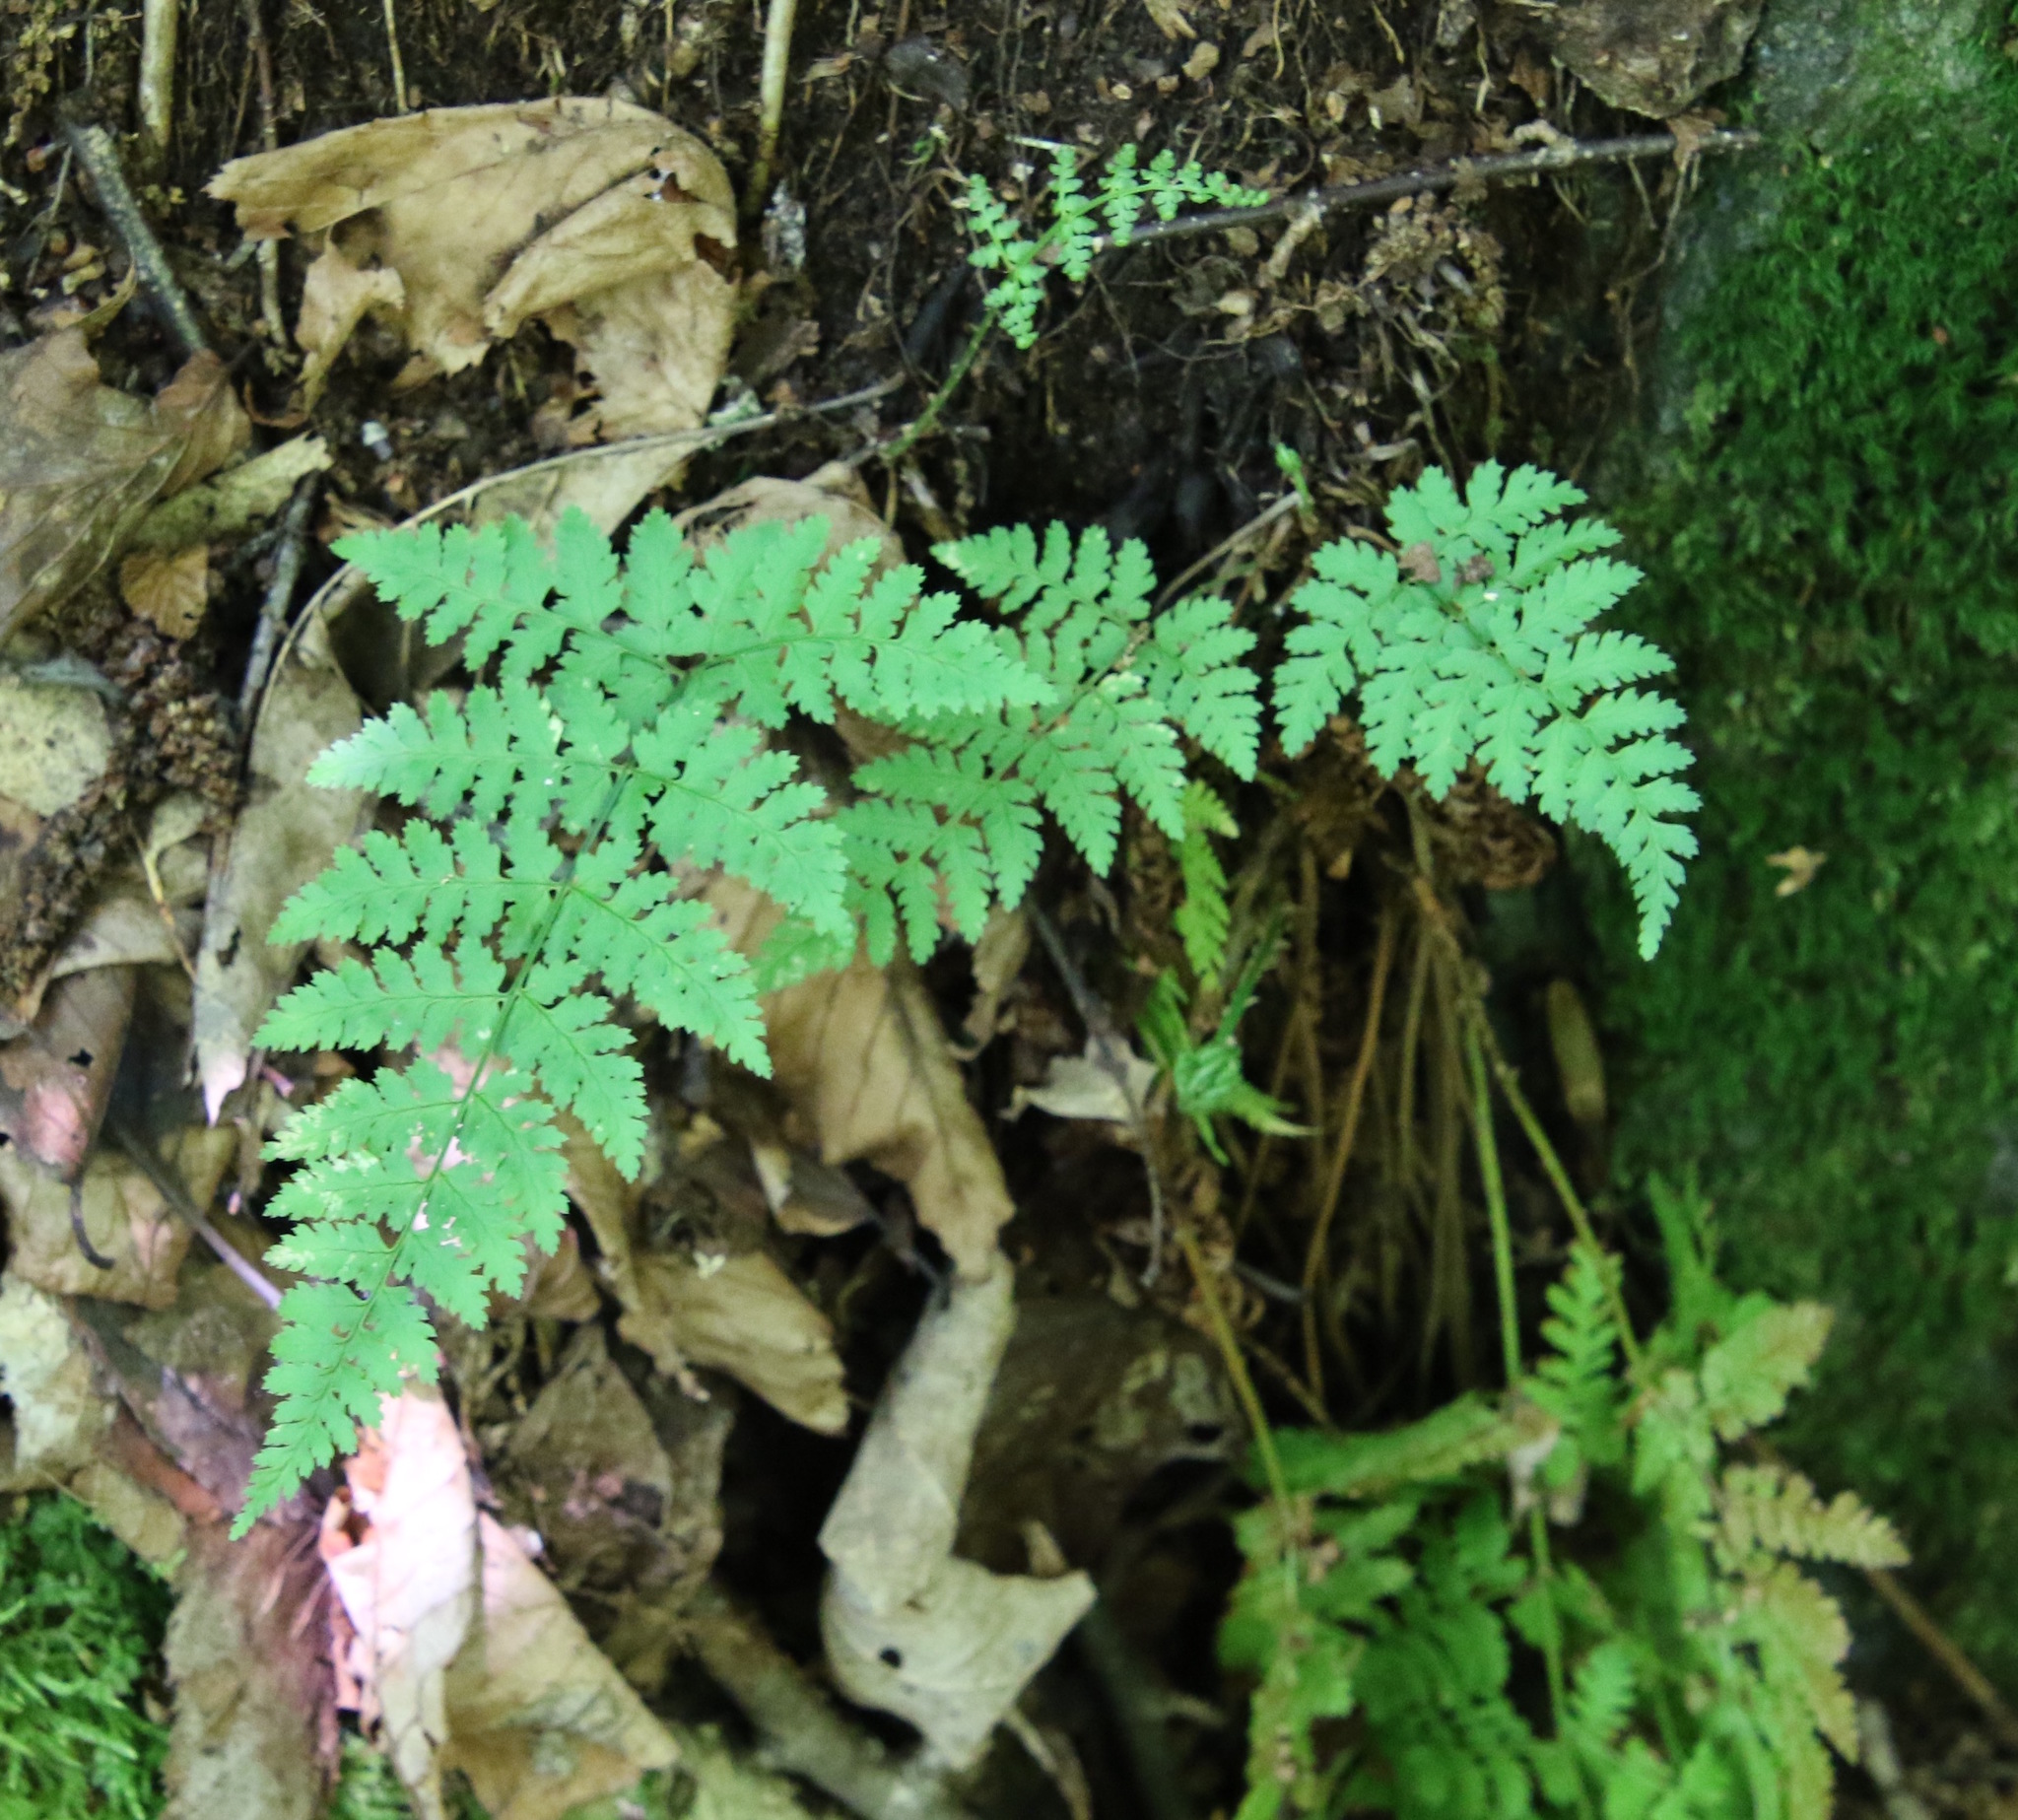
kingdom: Plantae
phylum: Tracheophyta
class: Polypodiopsida
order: Polypodiales
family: Dryopteridaceae
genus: Dryopteris
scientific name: Dryopteris intermedia
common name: Evergreen wood fern
